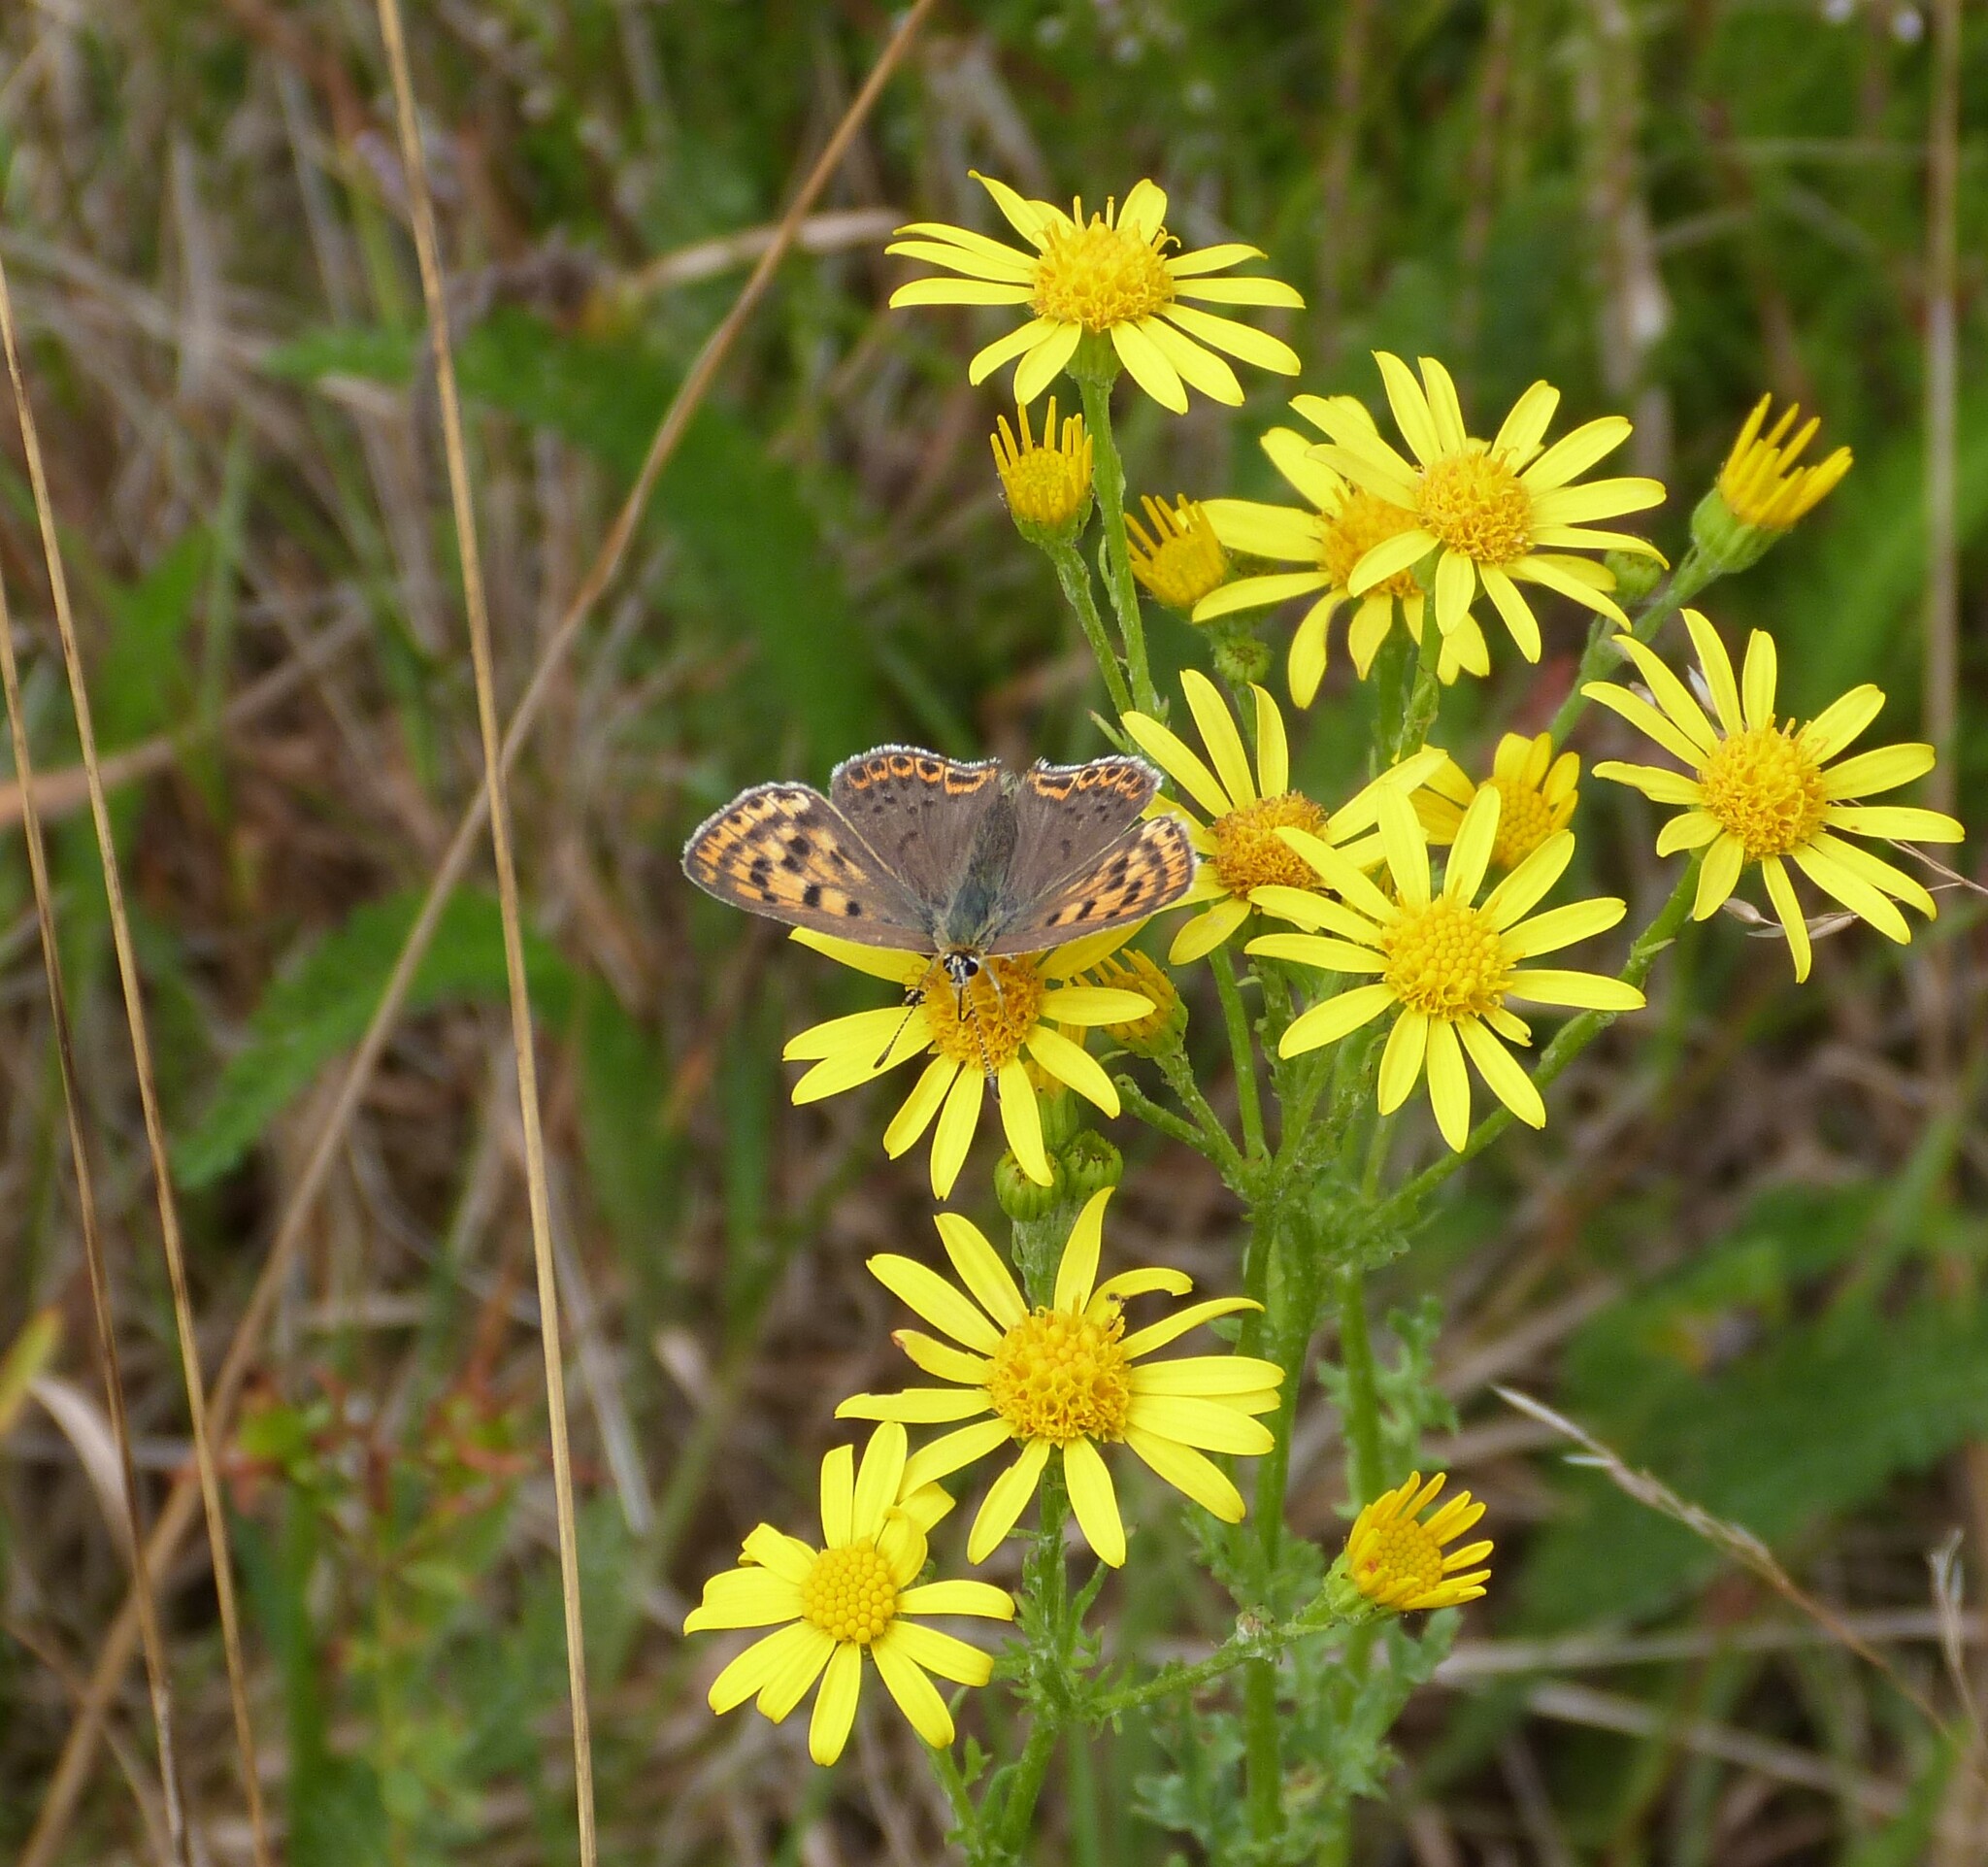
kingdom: Animalia
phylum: Arthropoda
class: Insecta
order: Lepidoptera
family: Lycaenidae
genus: Loweia
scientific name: Loweia tityrus
